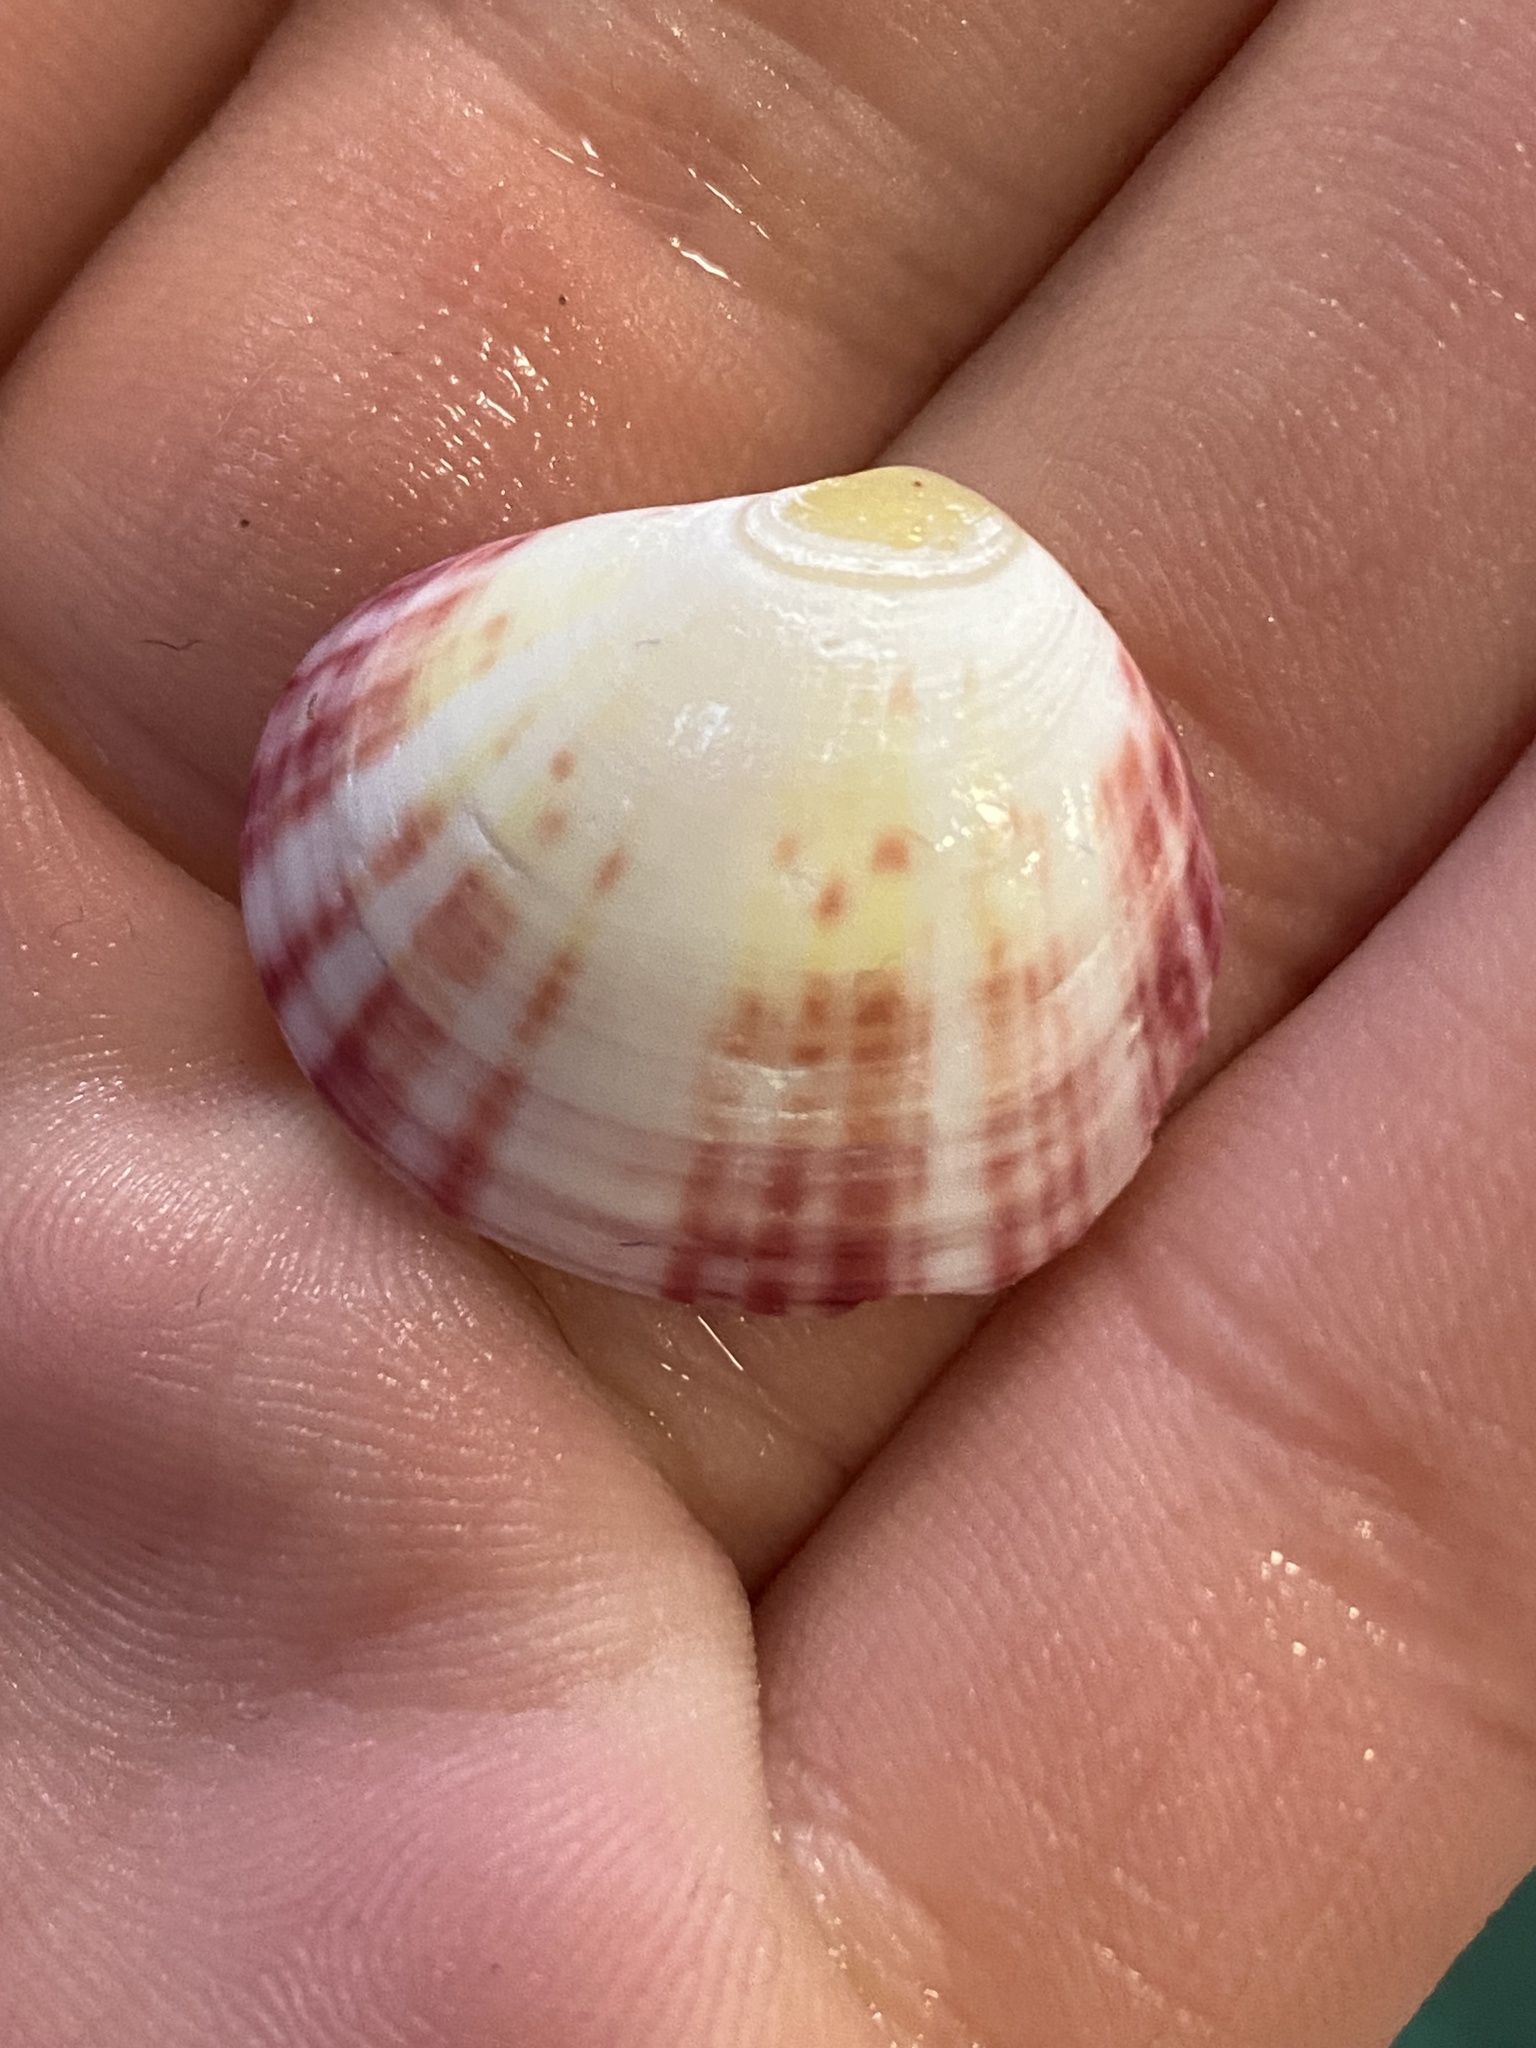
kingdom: Animalia
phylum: Mollusca
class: Bivalvia
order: Cardiida
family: Semelidae
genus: Semele
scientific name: Semele rubropicta
